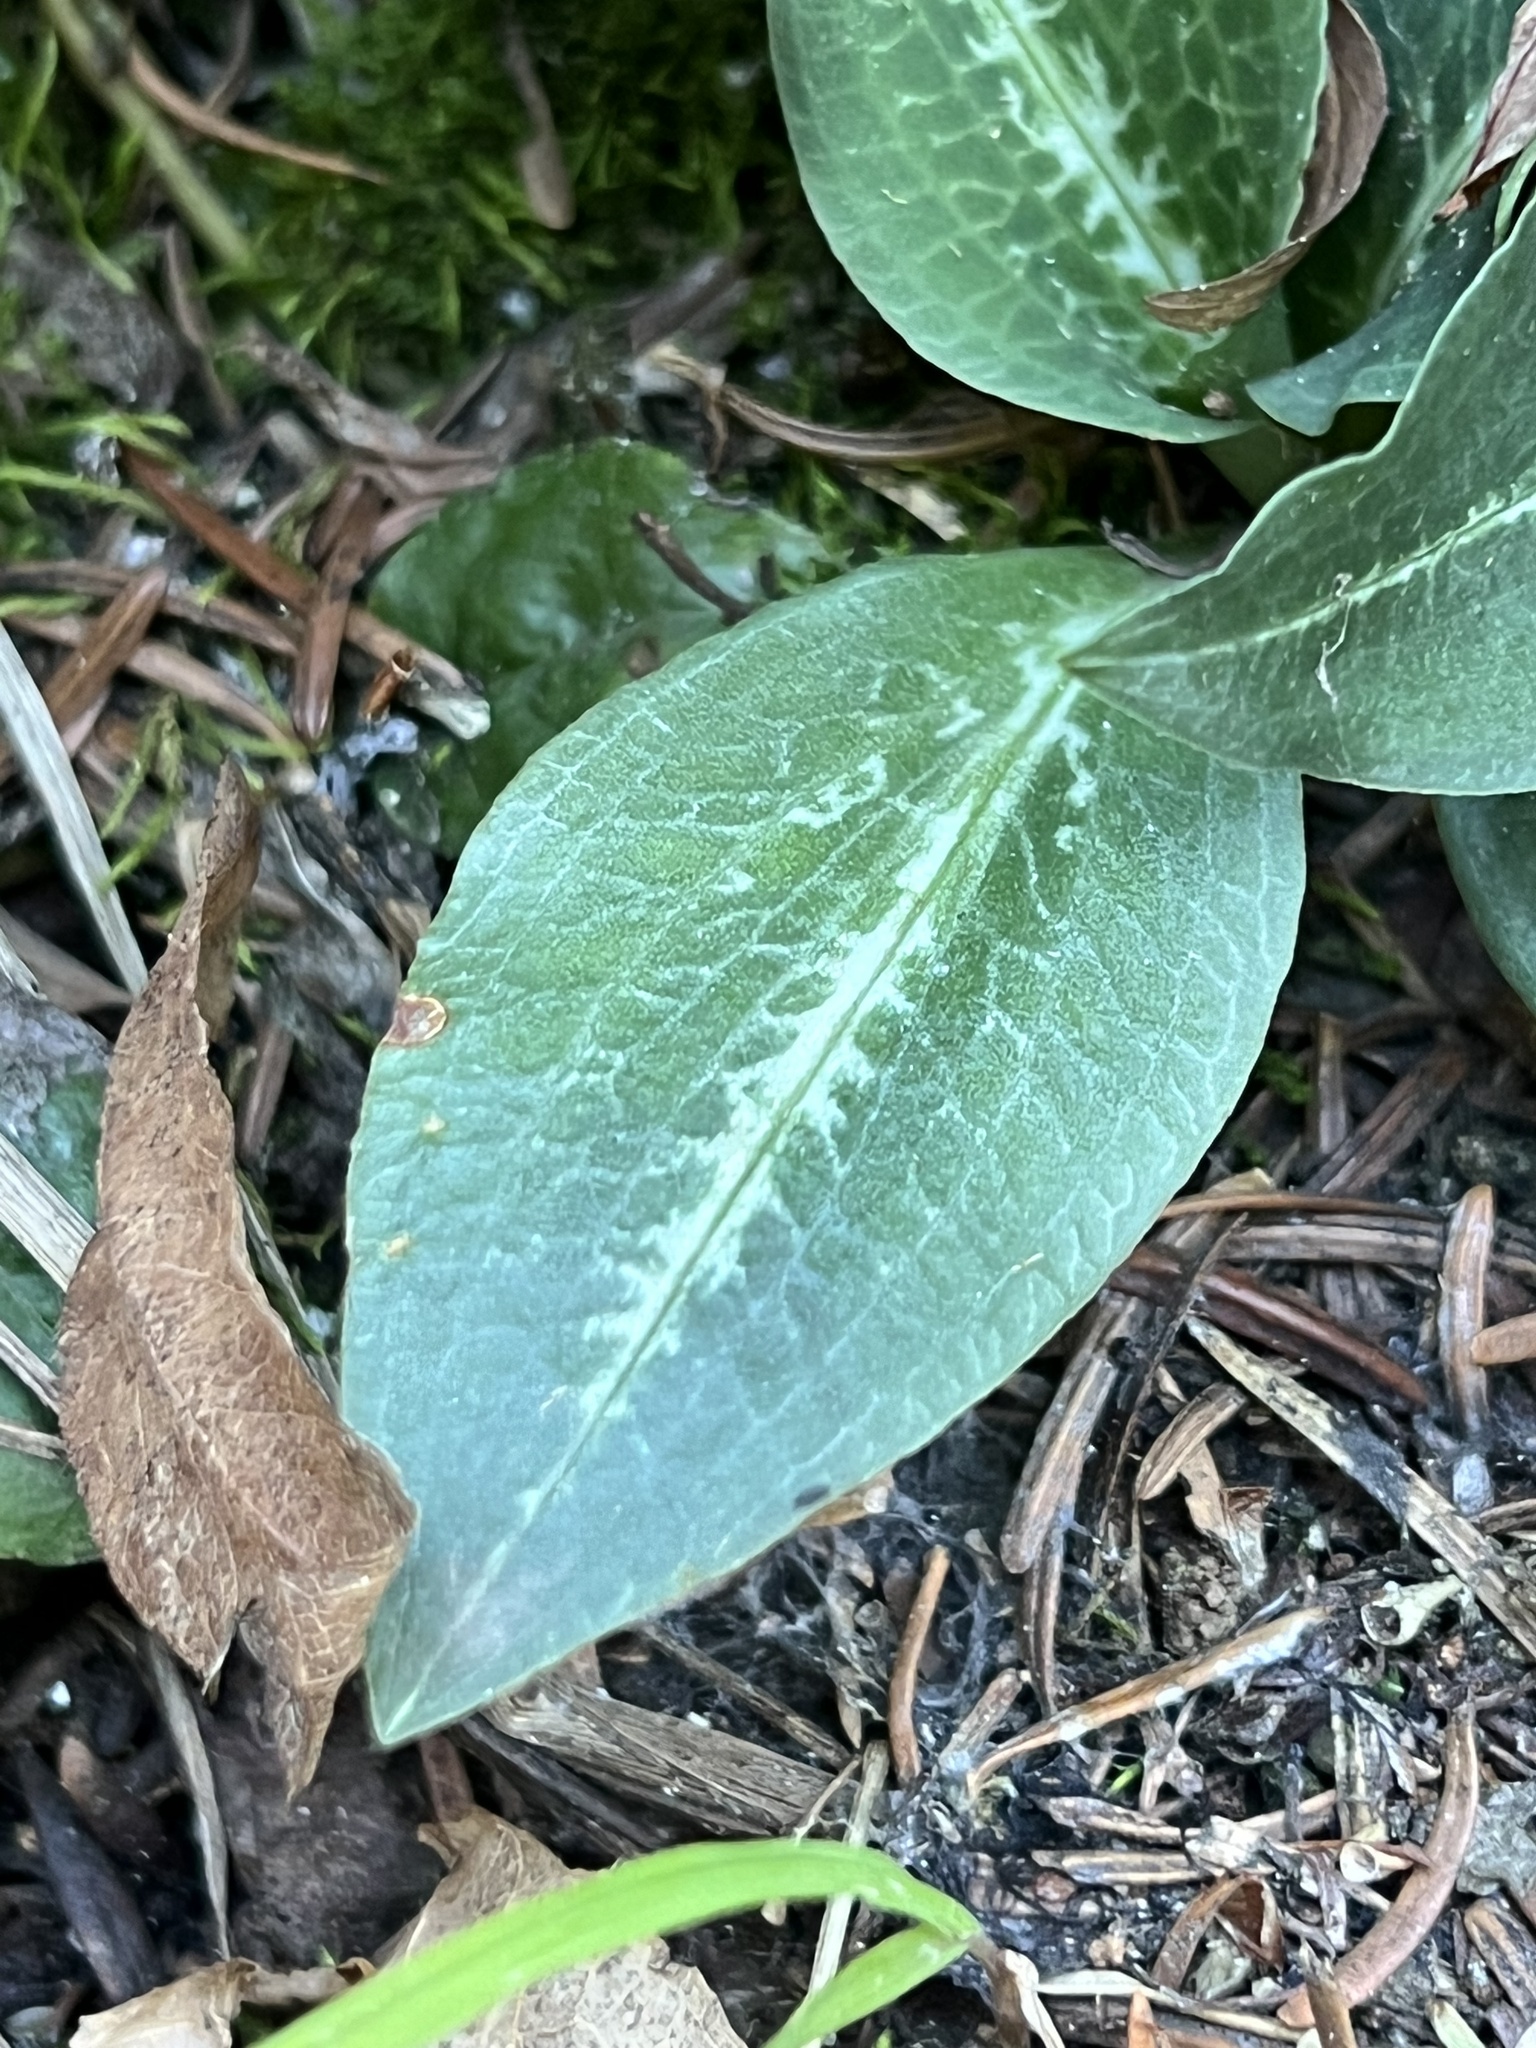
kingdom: Plantae
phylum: Tracheophyta
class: Liliopsida
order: Asparagales
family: Orchidaceae
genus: Goodyera
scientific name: Goodyera oblongifolia
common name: Giant rattlesnake-plantain
